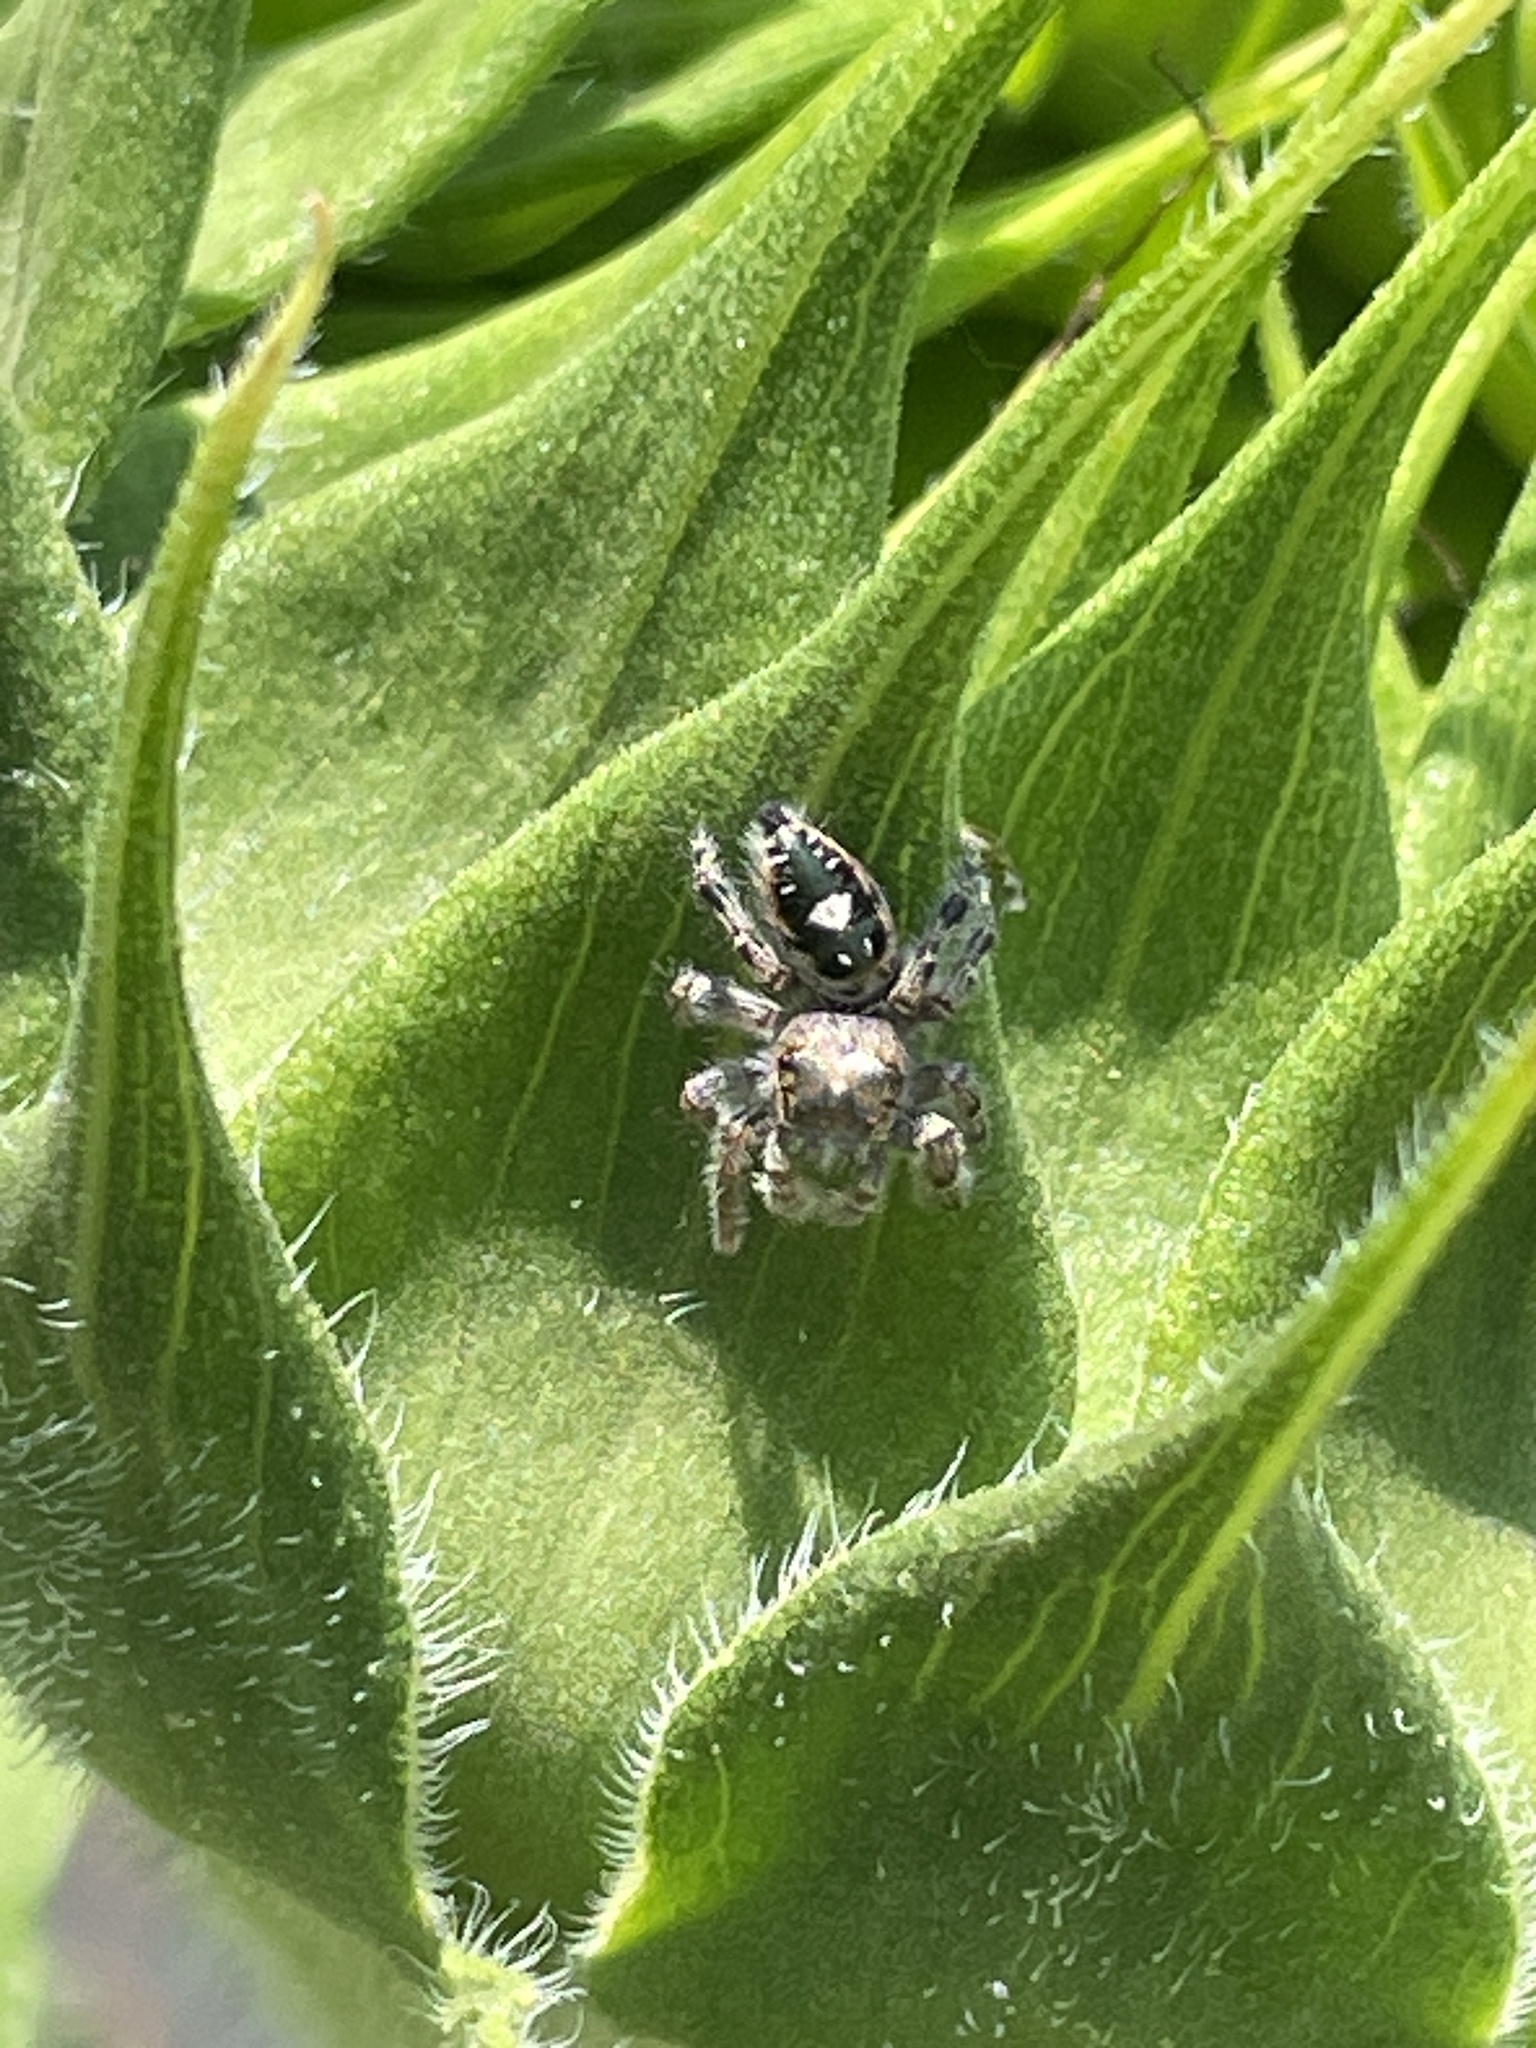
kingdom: Animalia
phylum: Arthropoda
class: Arachnida
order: Araneae
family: Salticidae
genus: Phidippus
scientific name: Phidippus putnami
